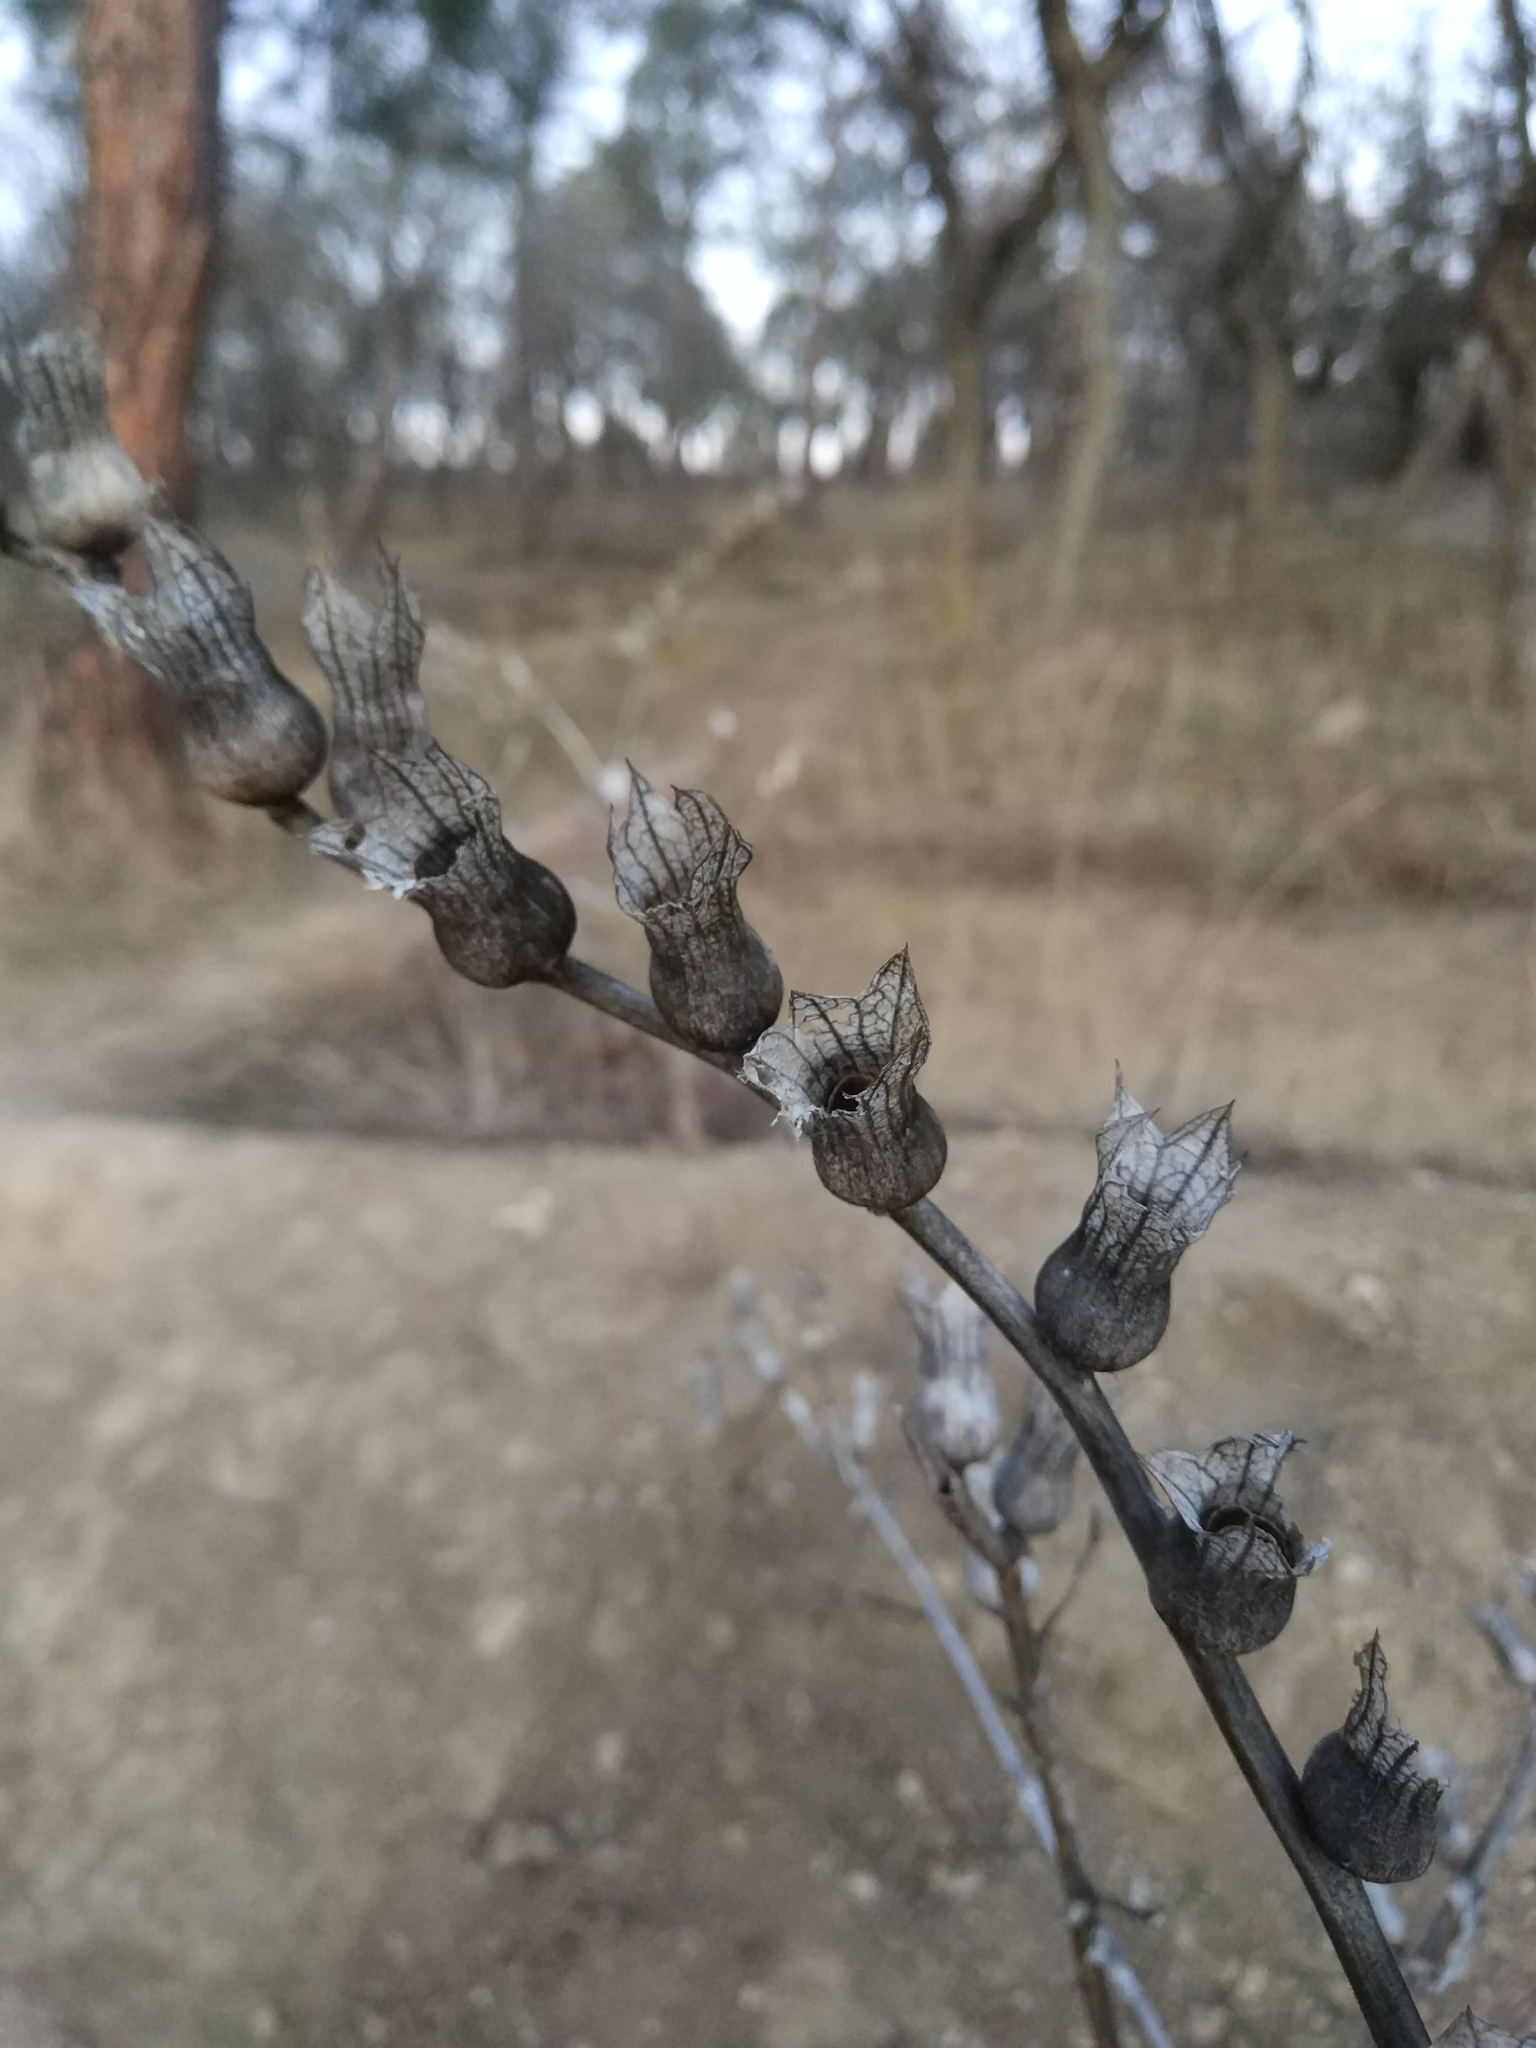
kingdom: Plantae
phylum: Tracheophyta
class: Magnoliopsida
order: Solanales
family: Solanaceae
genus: Hyoscyamus
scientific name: Hyoscyamus niger
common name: Henbane
